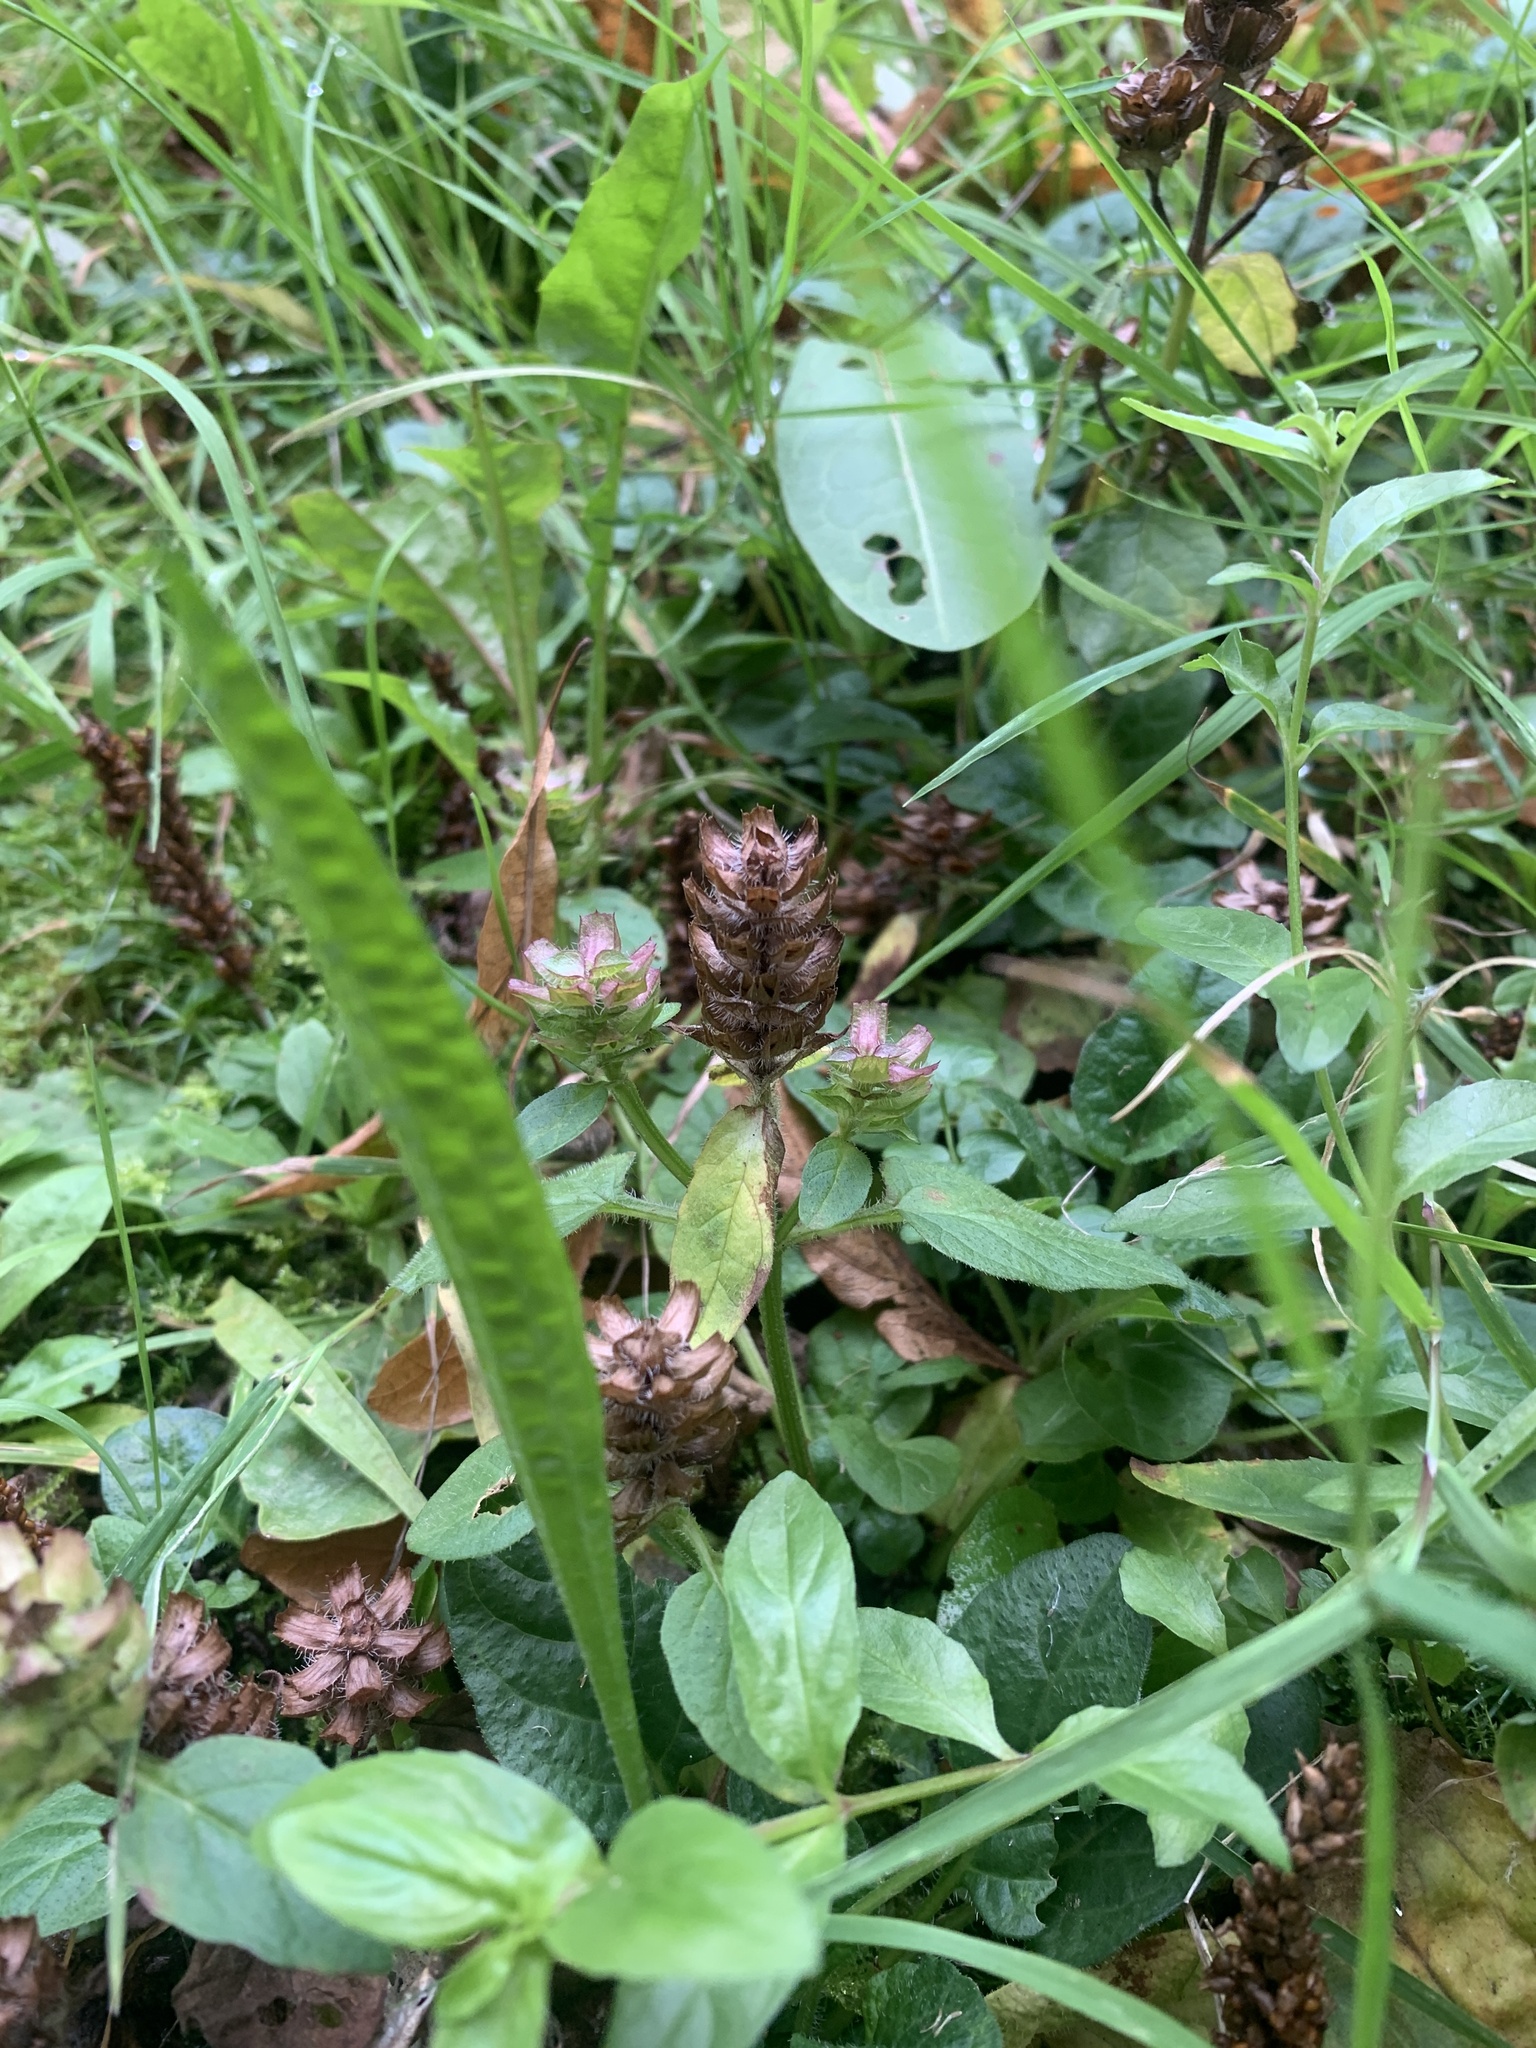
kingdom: Plantae
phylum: Tracheophyta
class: Magnoliopsida
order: Lamiales
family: Lamiaceae
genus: Prunella
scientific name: Prunella vulgaris
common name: Heal-all
